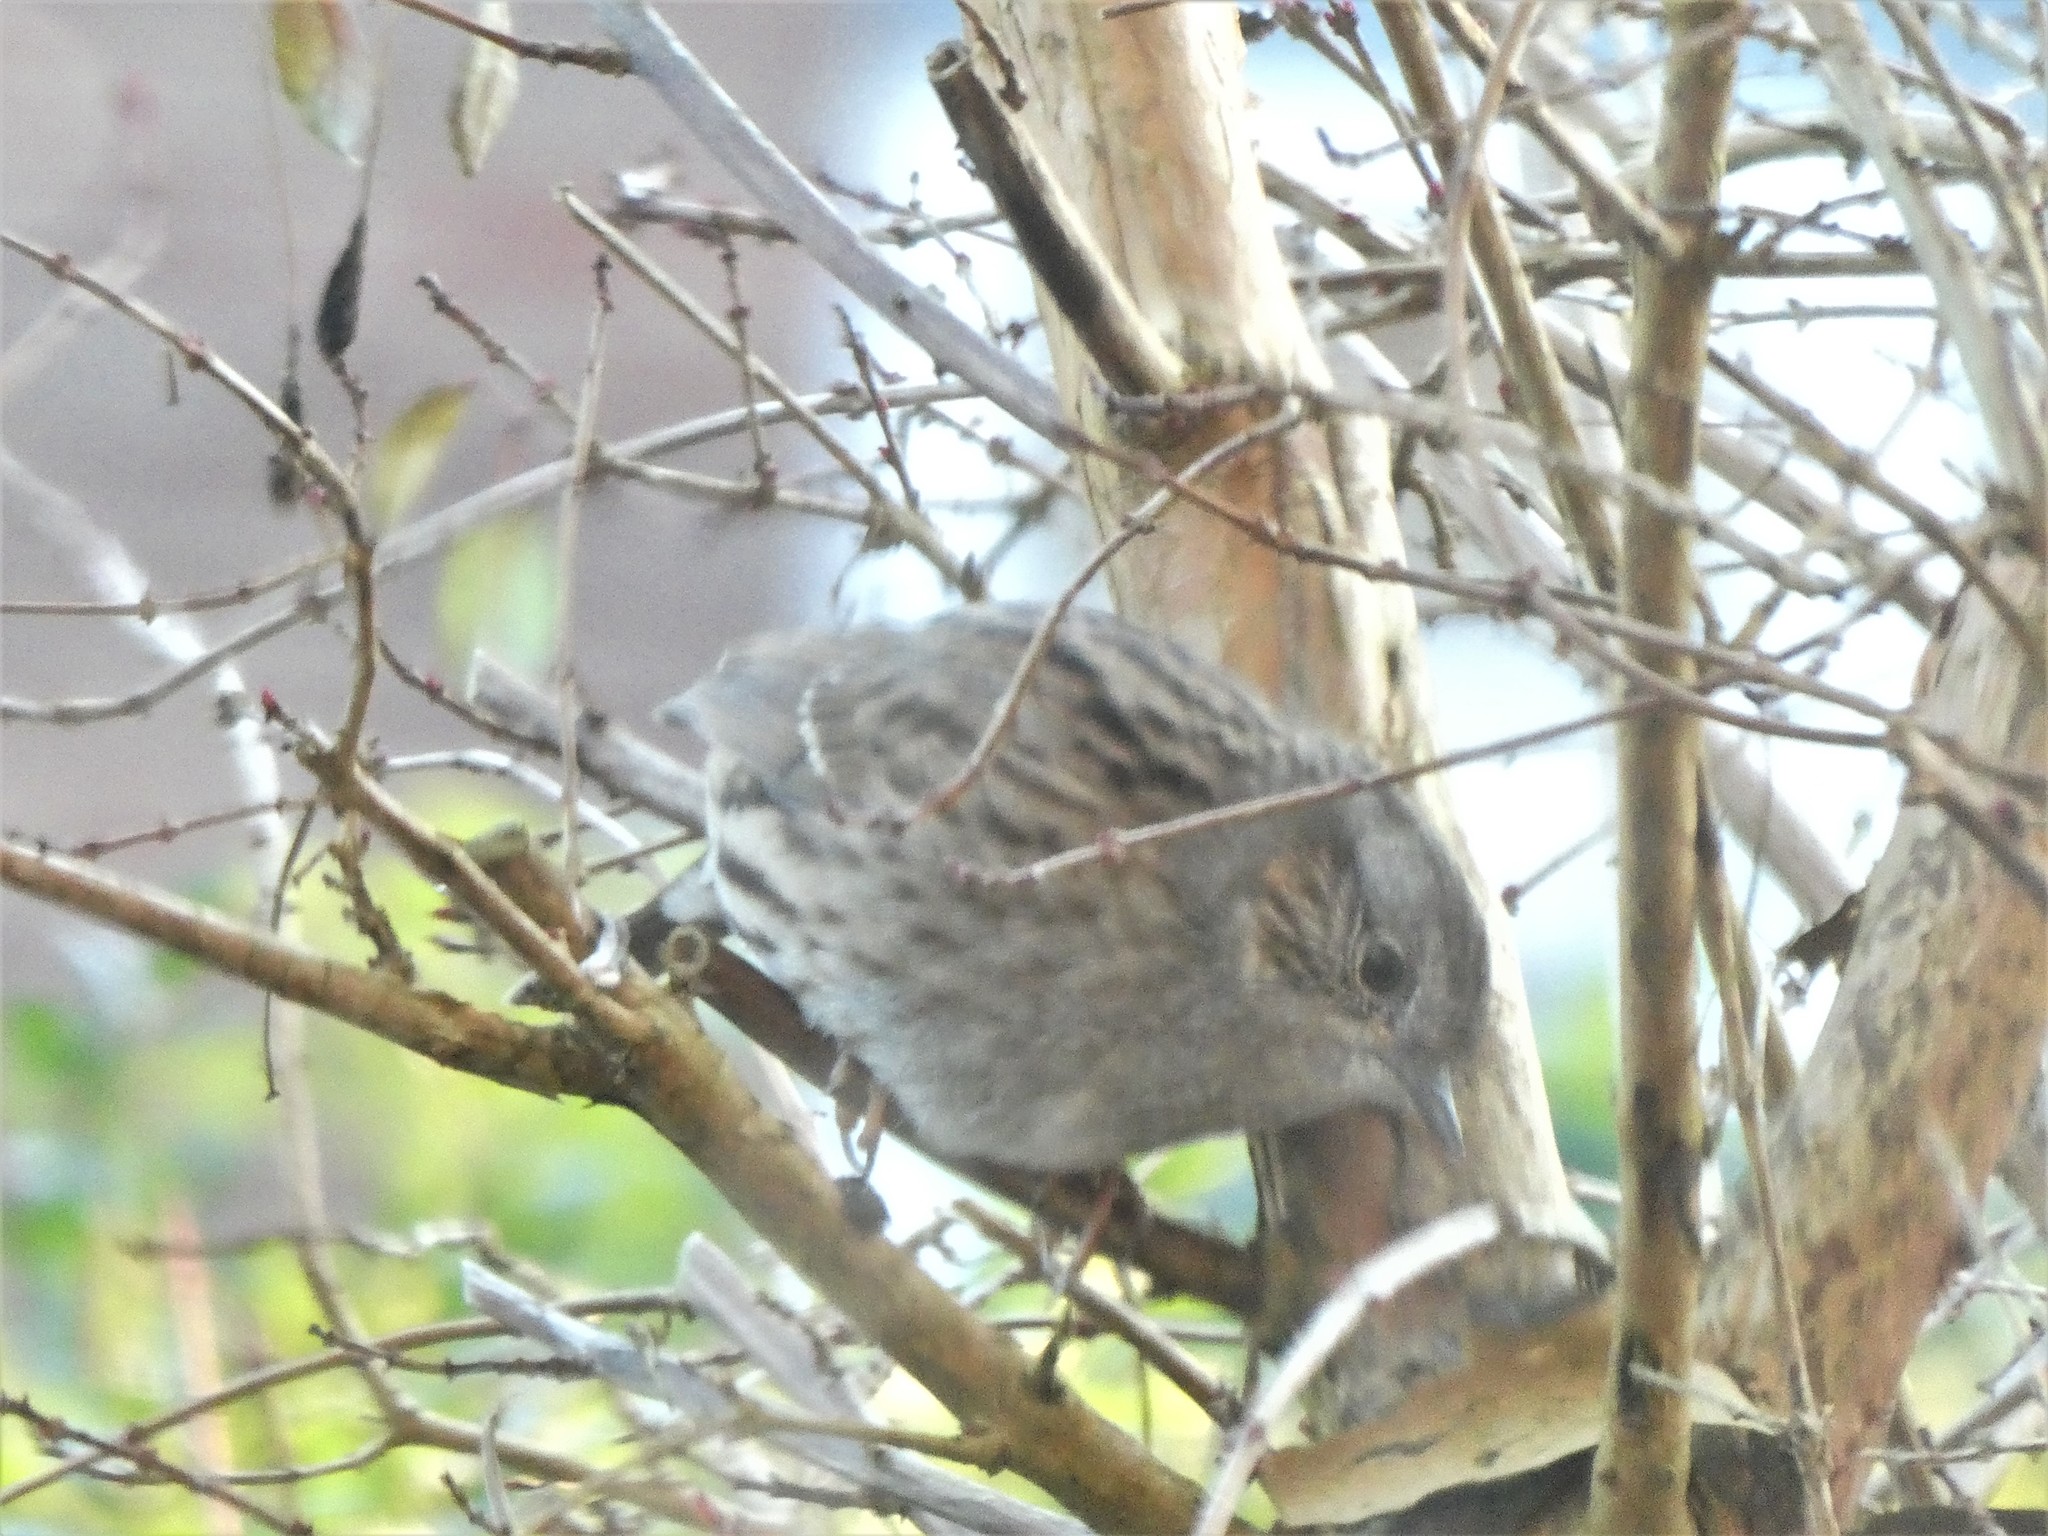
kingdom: Animalia
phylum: Chordata
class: Aves
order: Passeriformes
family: Prunellidae
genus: Prunella
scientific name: Prunella modularis
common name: Dunnock
